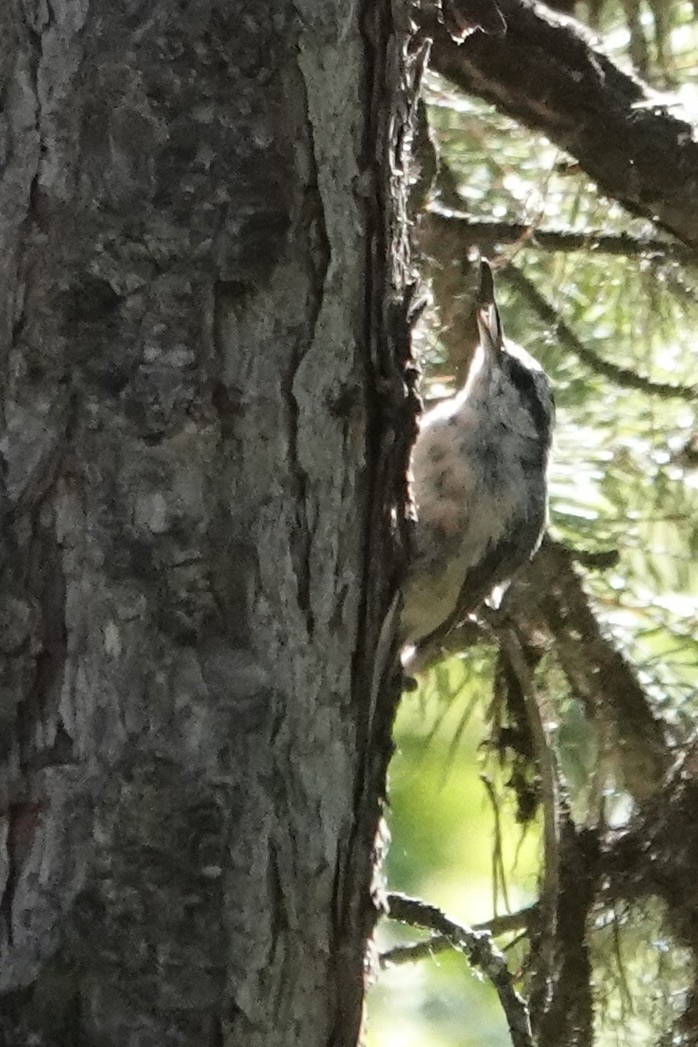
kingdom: Animalia
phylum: Chordata
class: Aves
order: Passeriformes
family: Sittidae
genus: Sitta
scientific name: Sitta canadensis
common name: Red-breasted nuthatch
